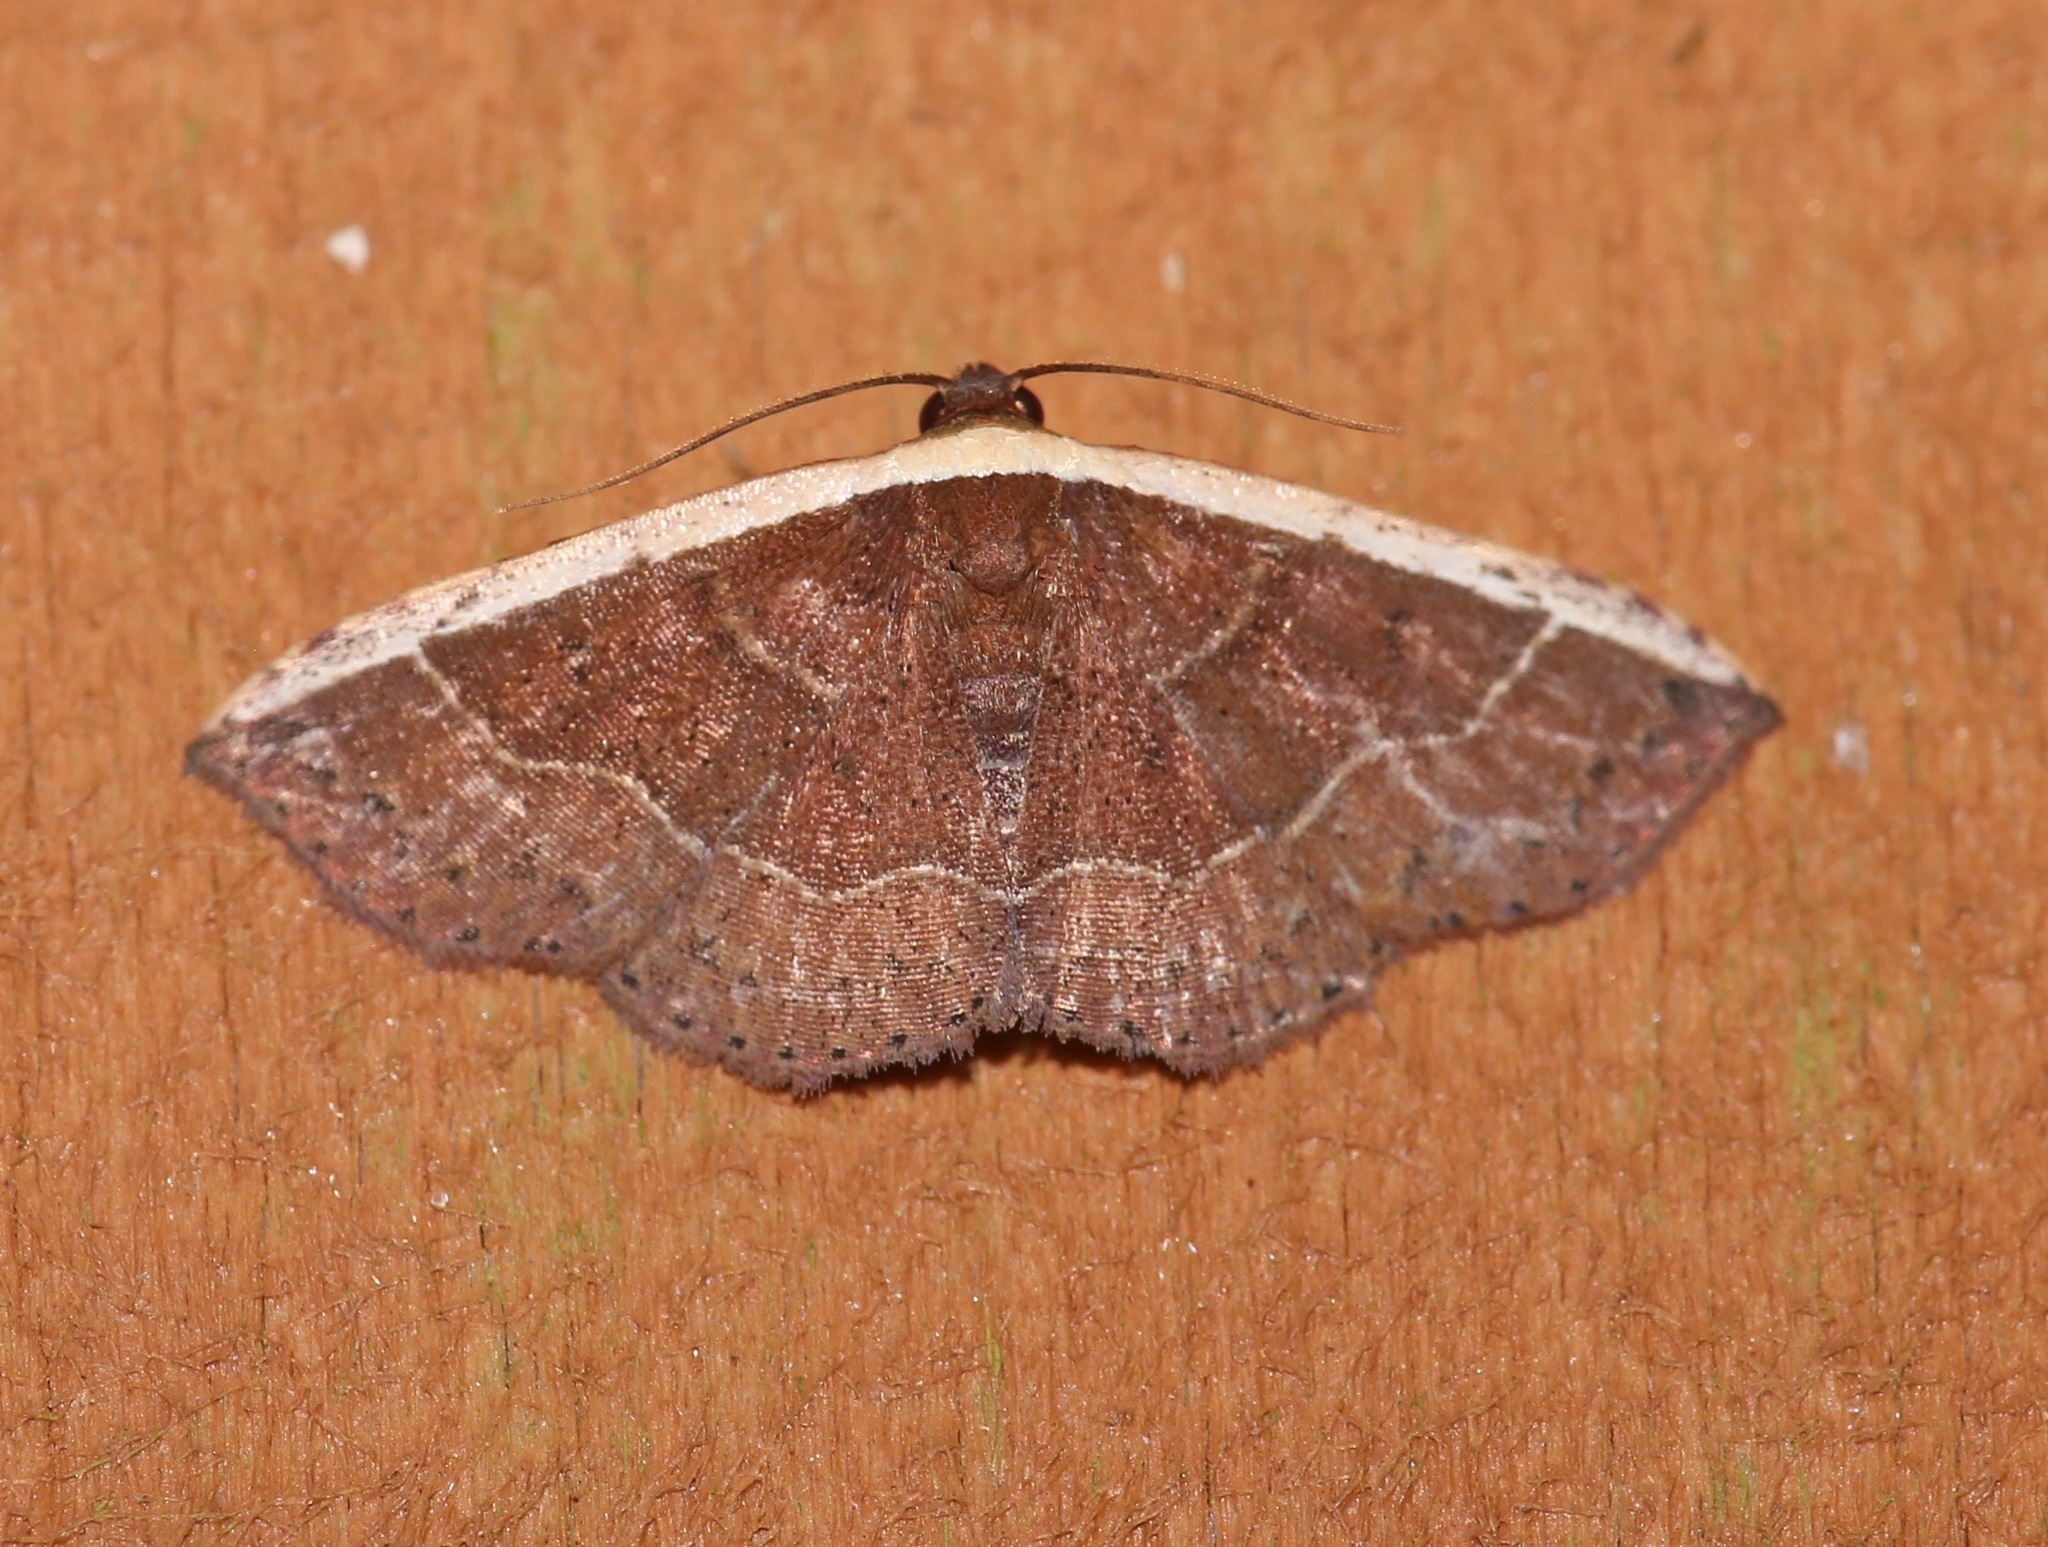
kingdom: Animalia
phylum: Arthropoda
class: Insecta
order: Lepidoptera
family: Noctuidae
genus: Ozarba
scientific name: Ozarba albocostaliata
